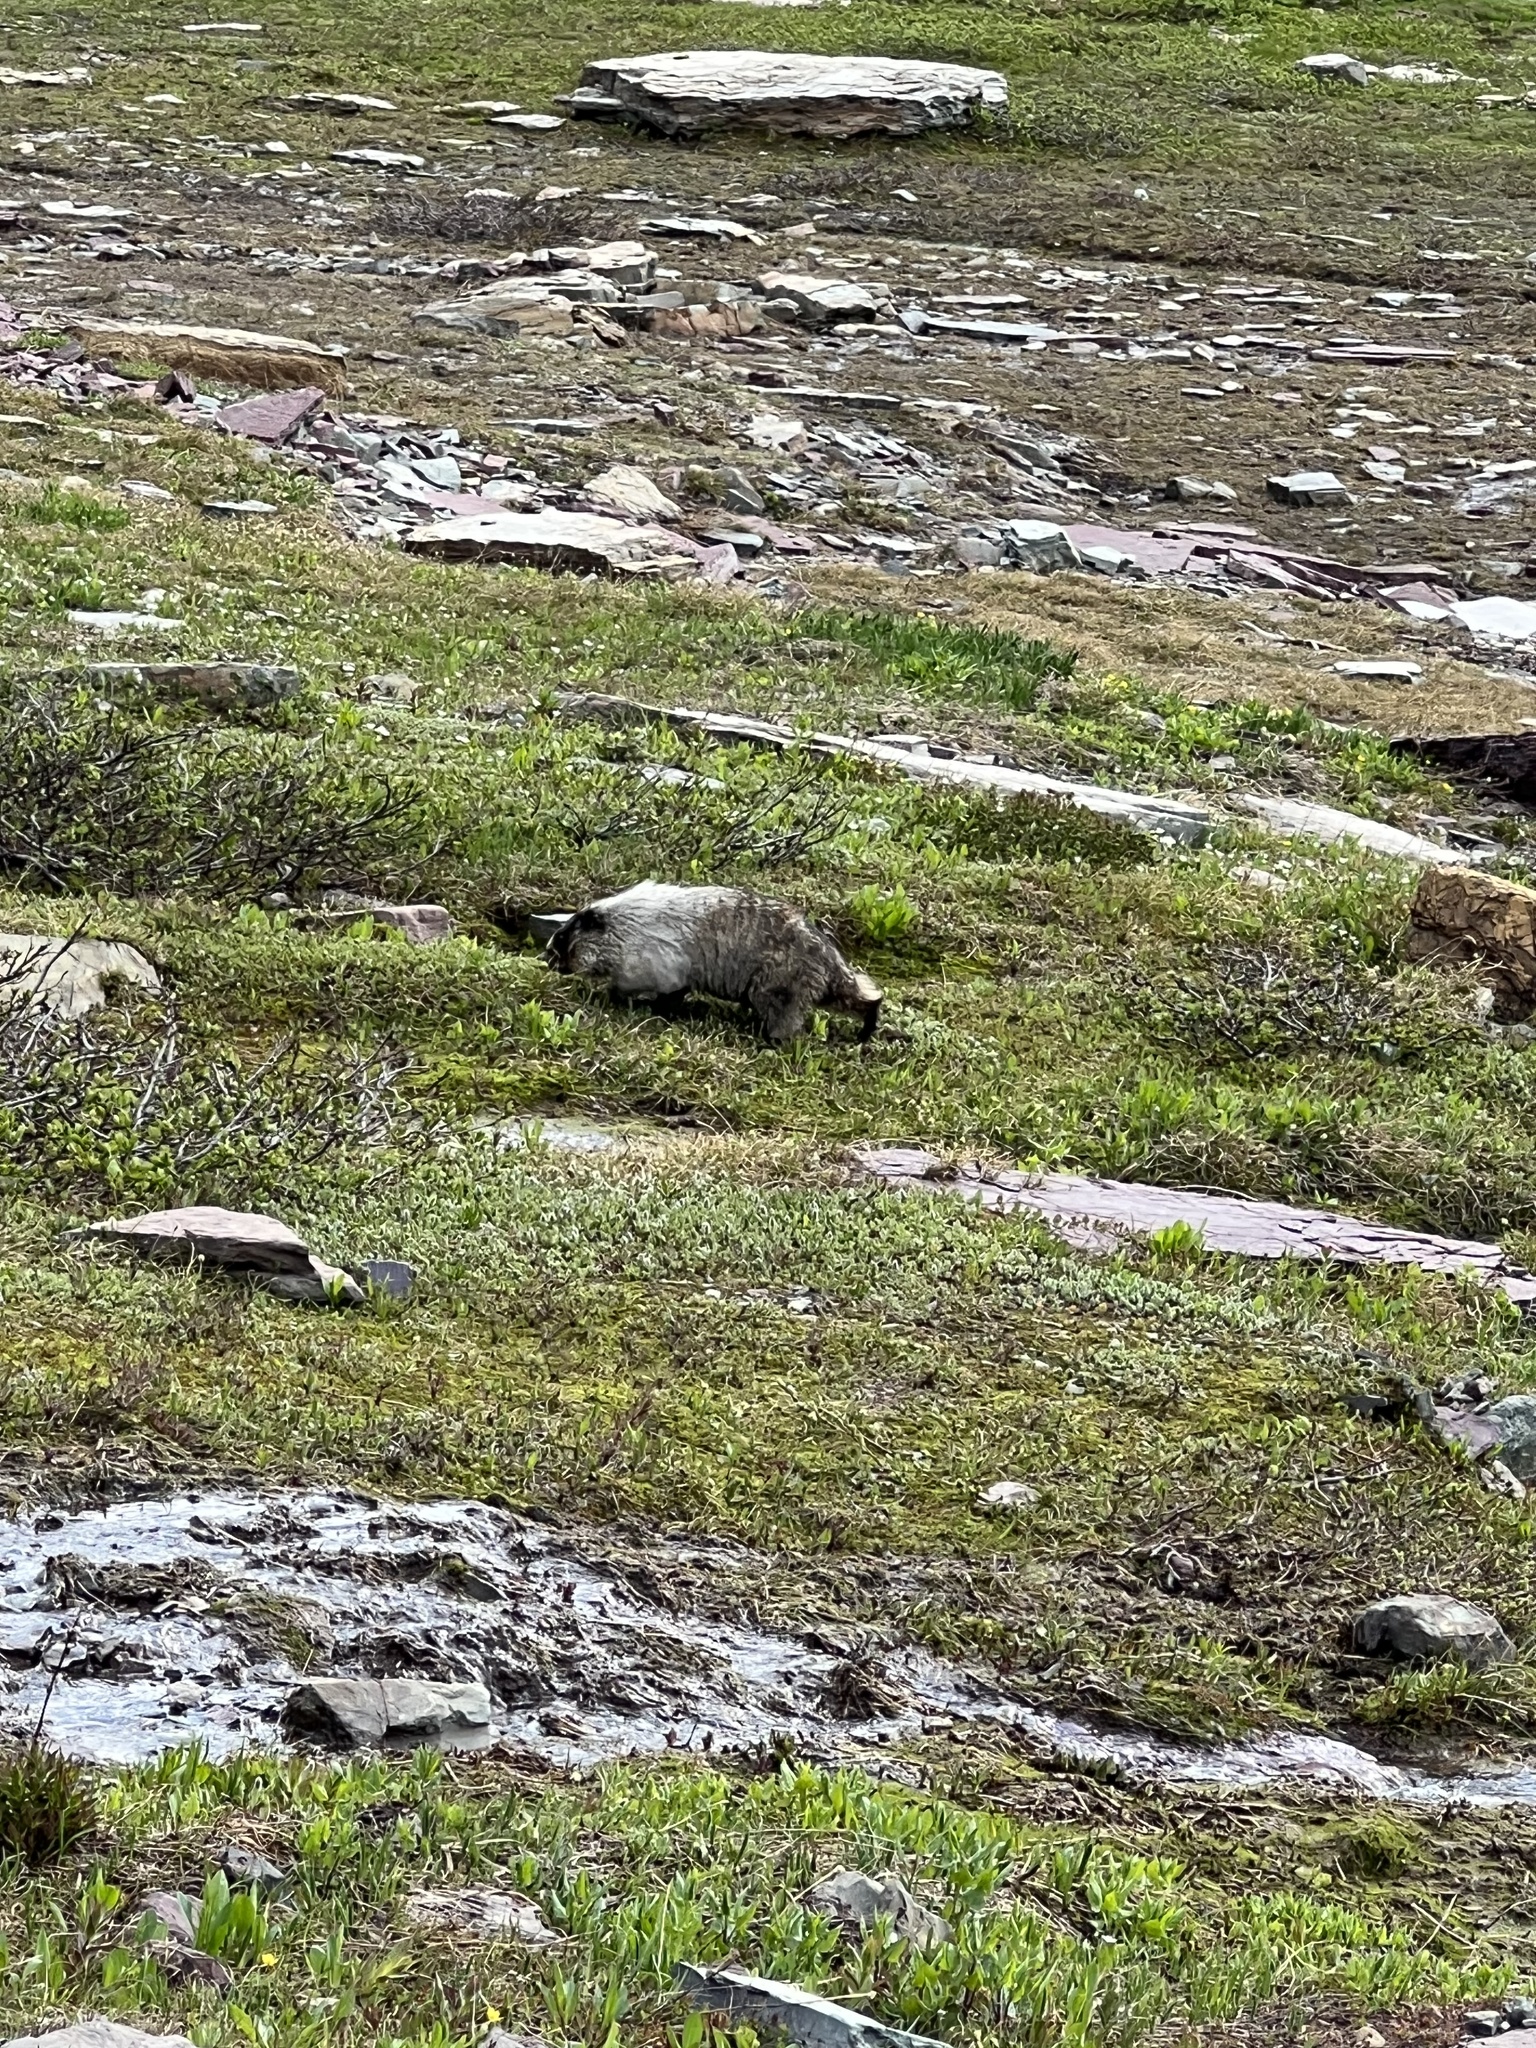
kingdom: Animalia
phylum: Chordata
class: Mammalia
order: Rodentia
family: Sciuridae
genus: Marmota
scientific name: Marmota caligata
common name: Hoary marmot
